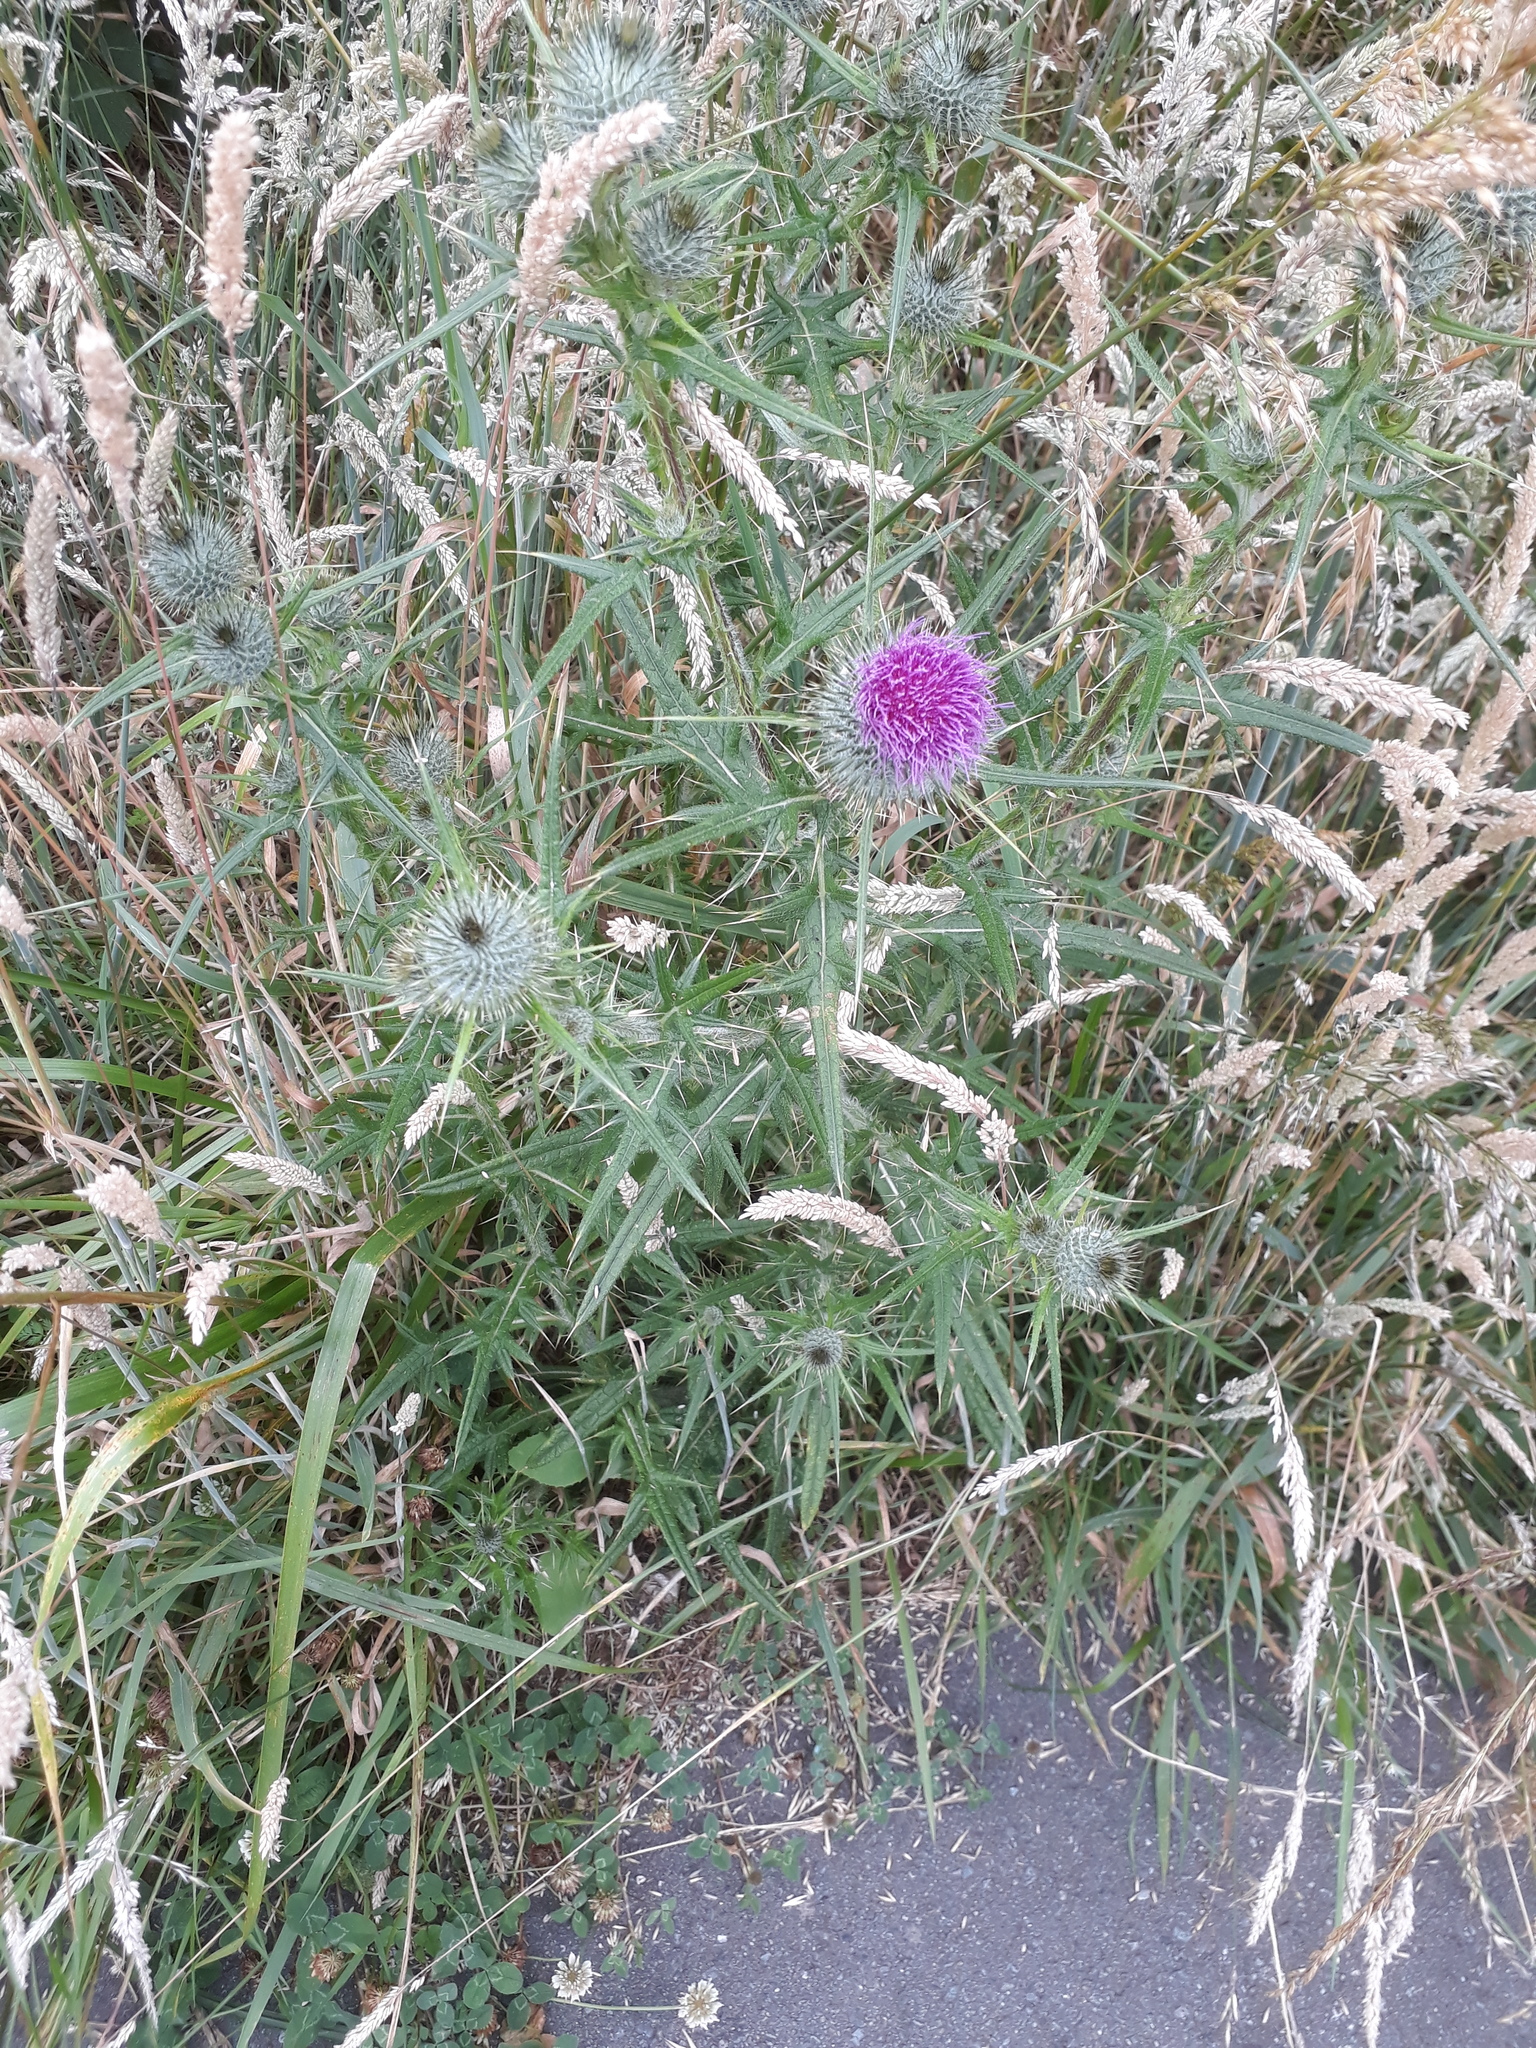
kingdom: Plantae
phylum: Tracheophyta
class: Magnoliopsida
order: Asterales
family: Asteraceae
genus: Cirsium
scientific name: Cirsium vulgare
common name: Bull thistle
